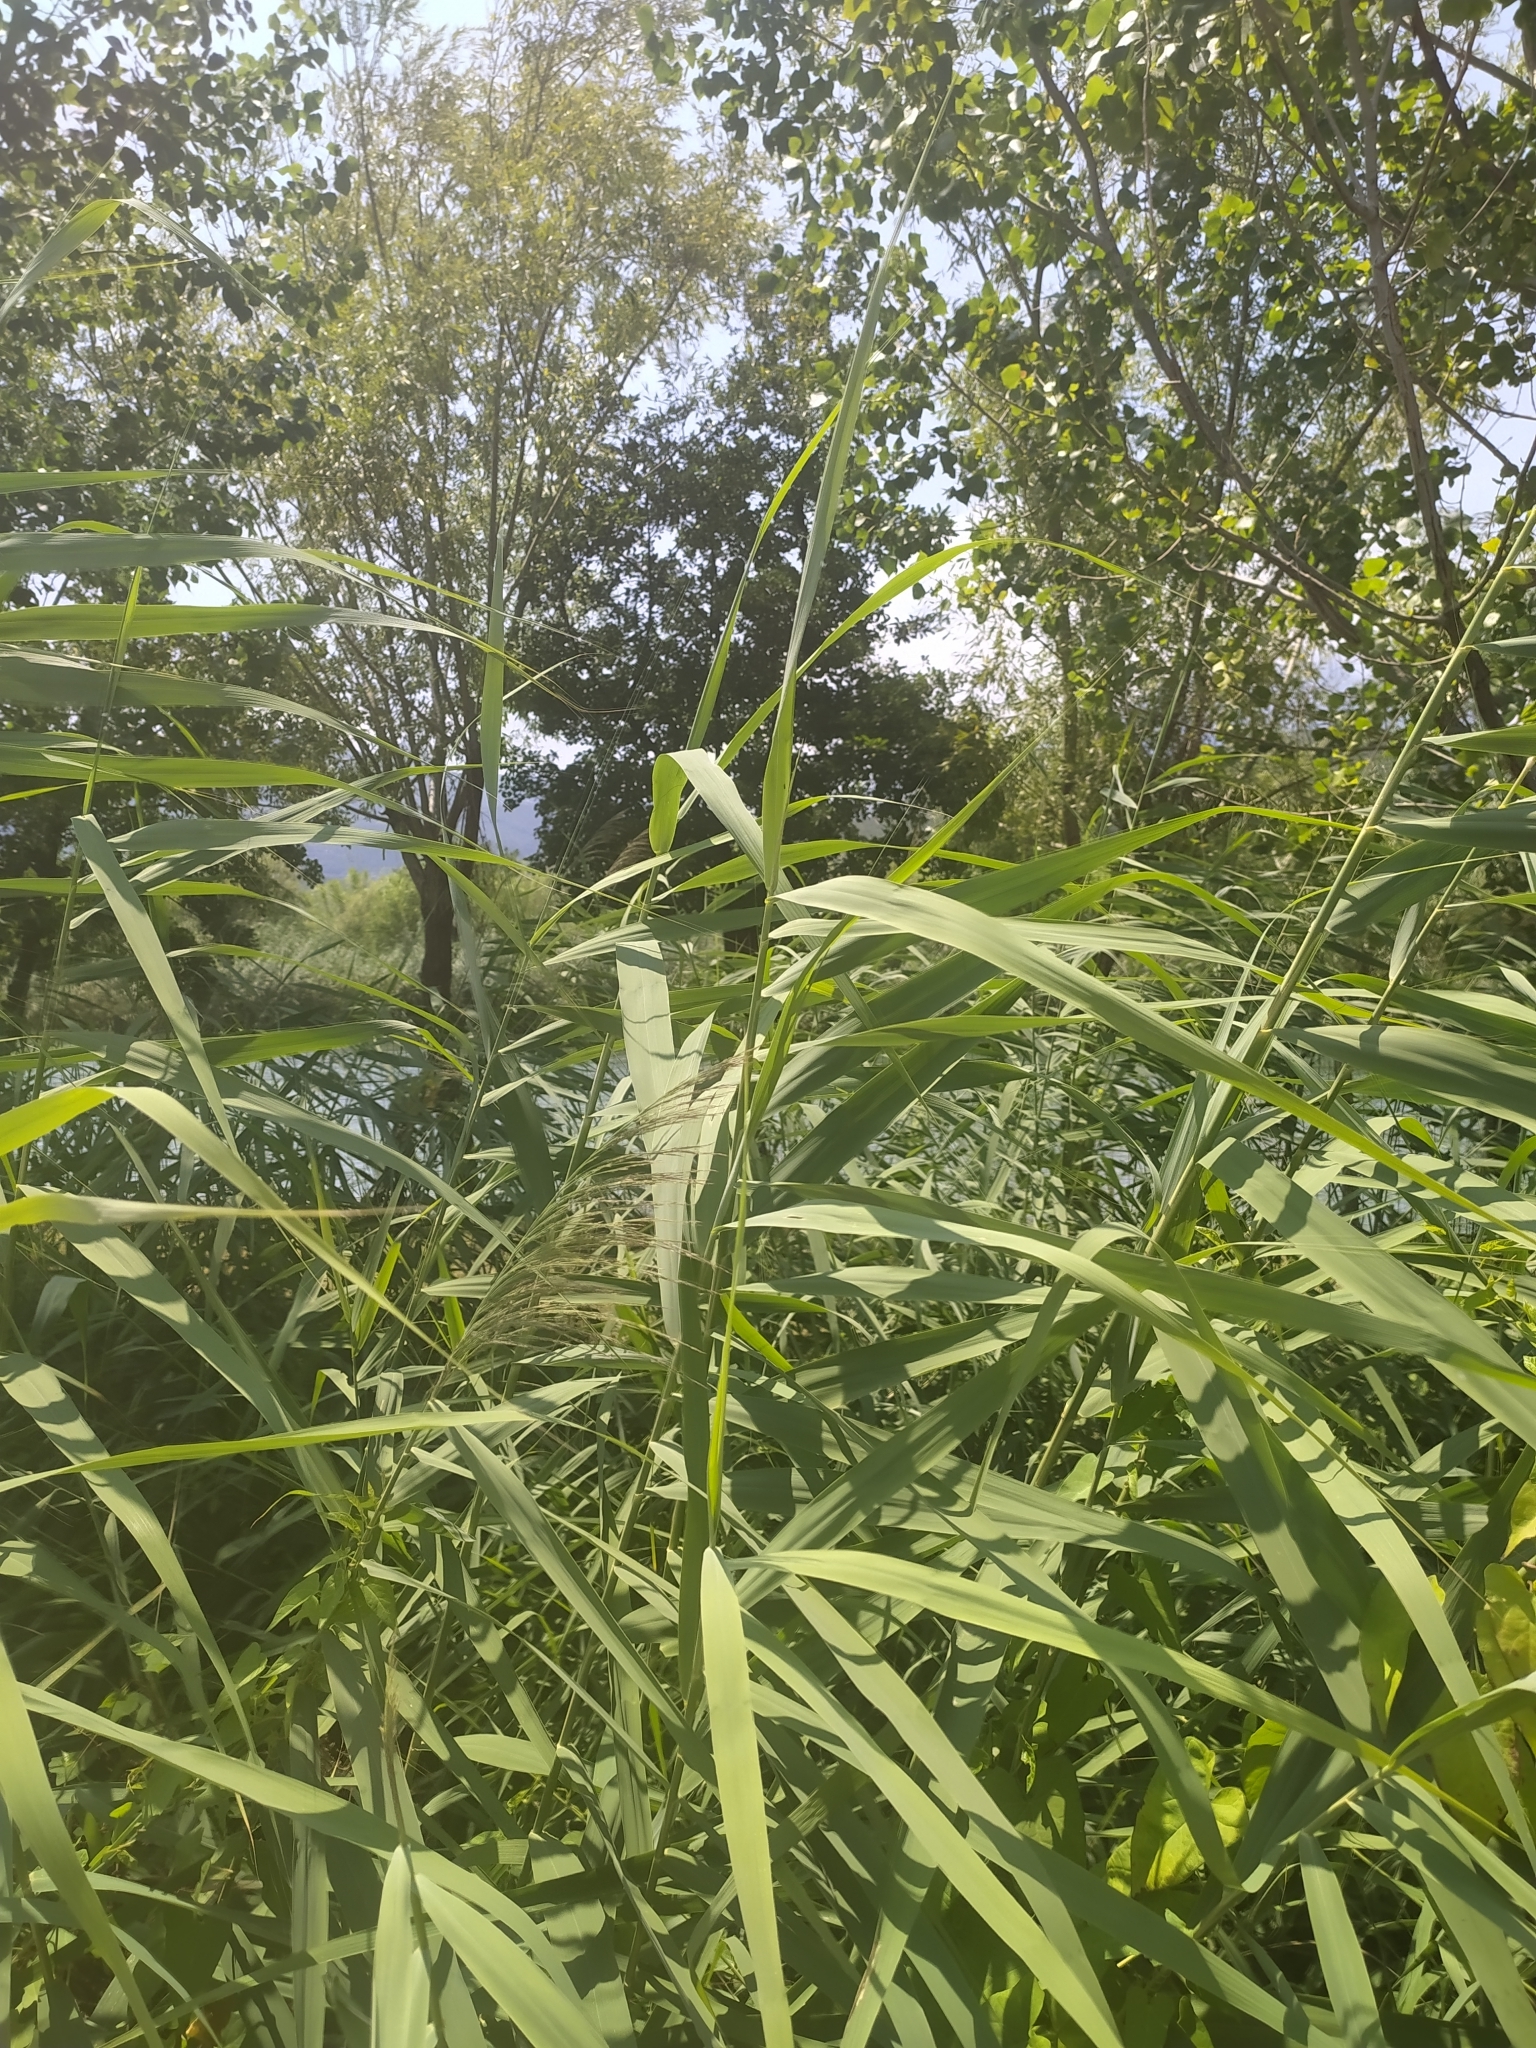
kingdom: Plantae
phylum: Tracheophyta
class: Liliopsida
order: Poales
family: Poaceae
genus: Phragmites
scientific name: Phragmites australis
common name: Common reed
